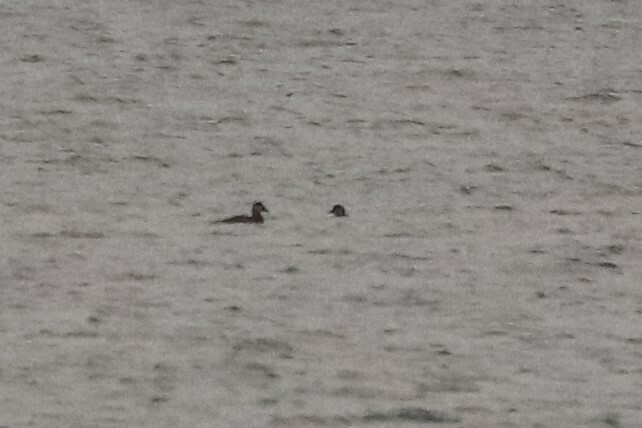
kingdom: Animalia
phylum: Chordata
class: Aves
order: Anseriformes
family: Anatidae
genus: Melanitta
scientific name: Melanitta americana
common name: Black scoter
